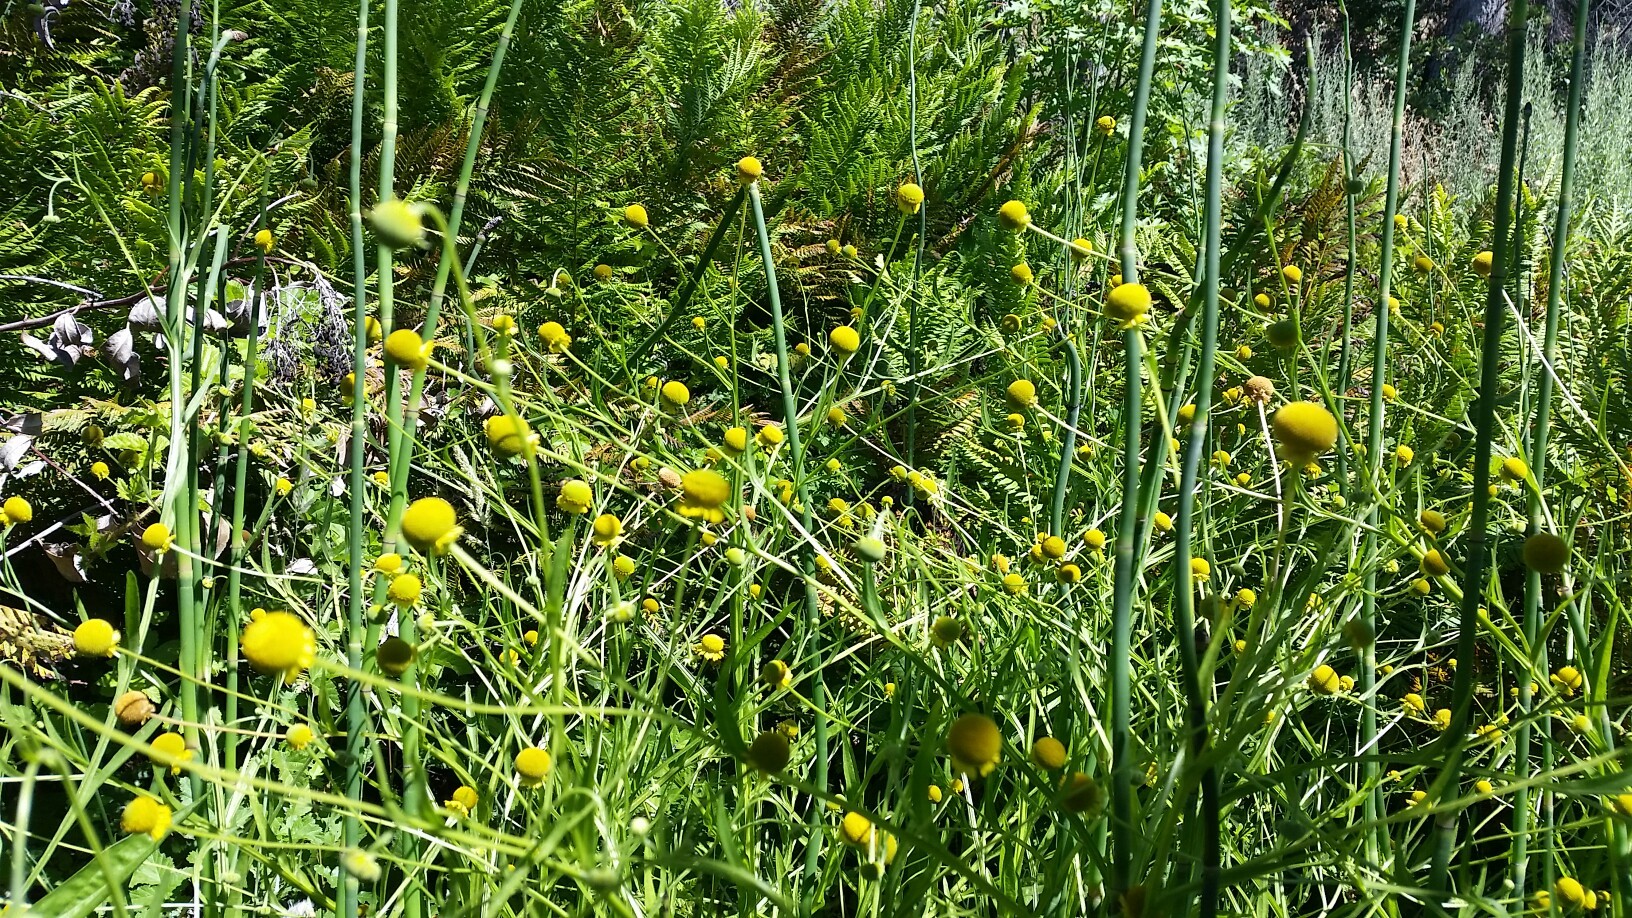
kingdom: Plantae
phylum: Tracheophyta
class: Magnoliopsida
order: Asterales
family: Asteraceae
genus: Helenium
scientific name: Helenium puberulum
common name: Sneezewort
